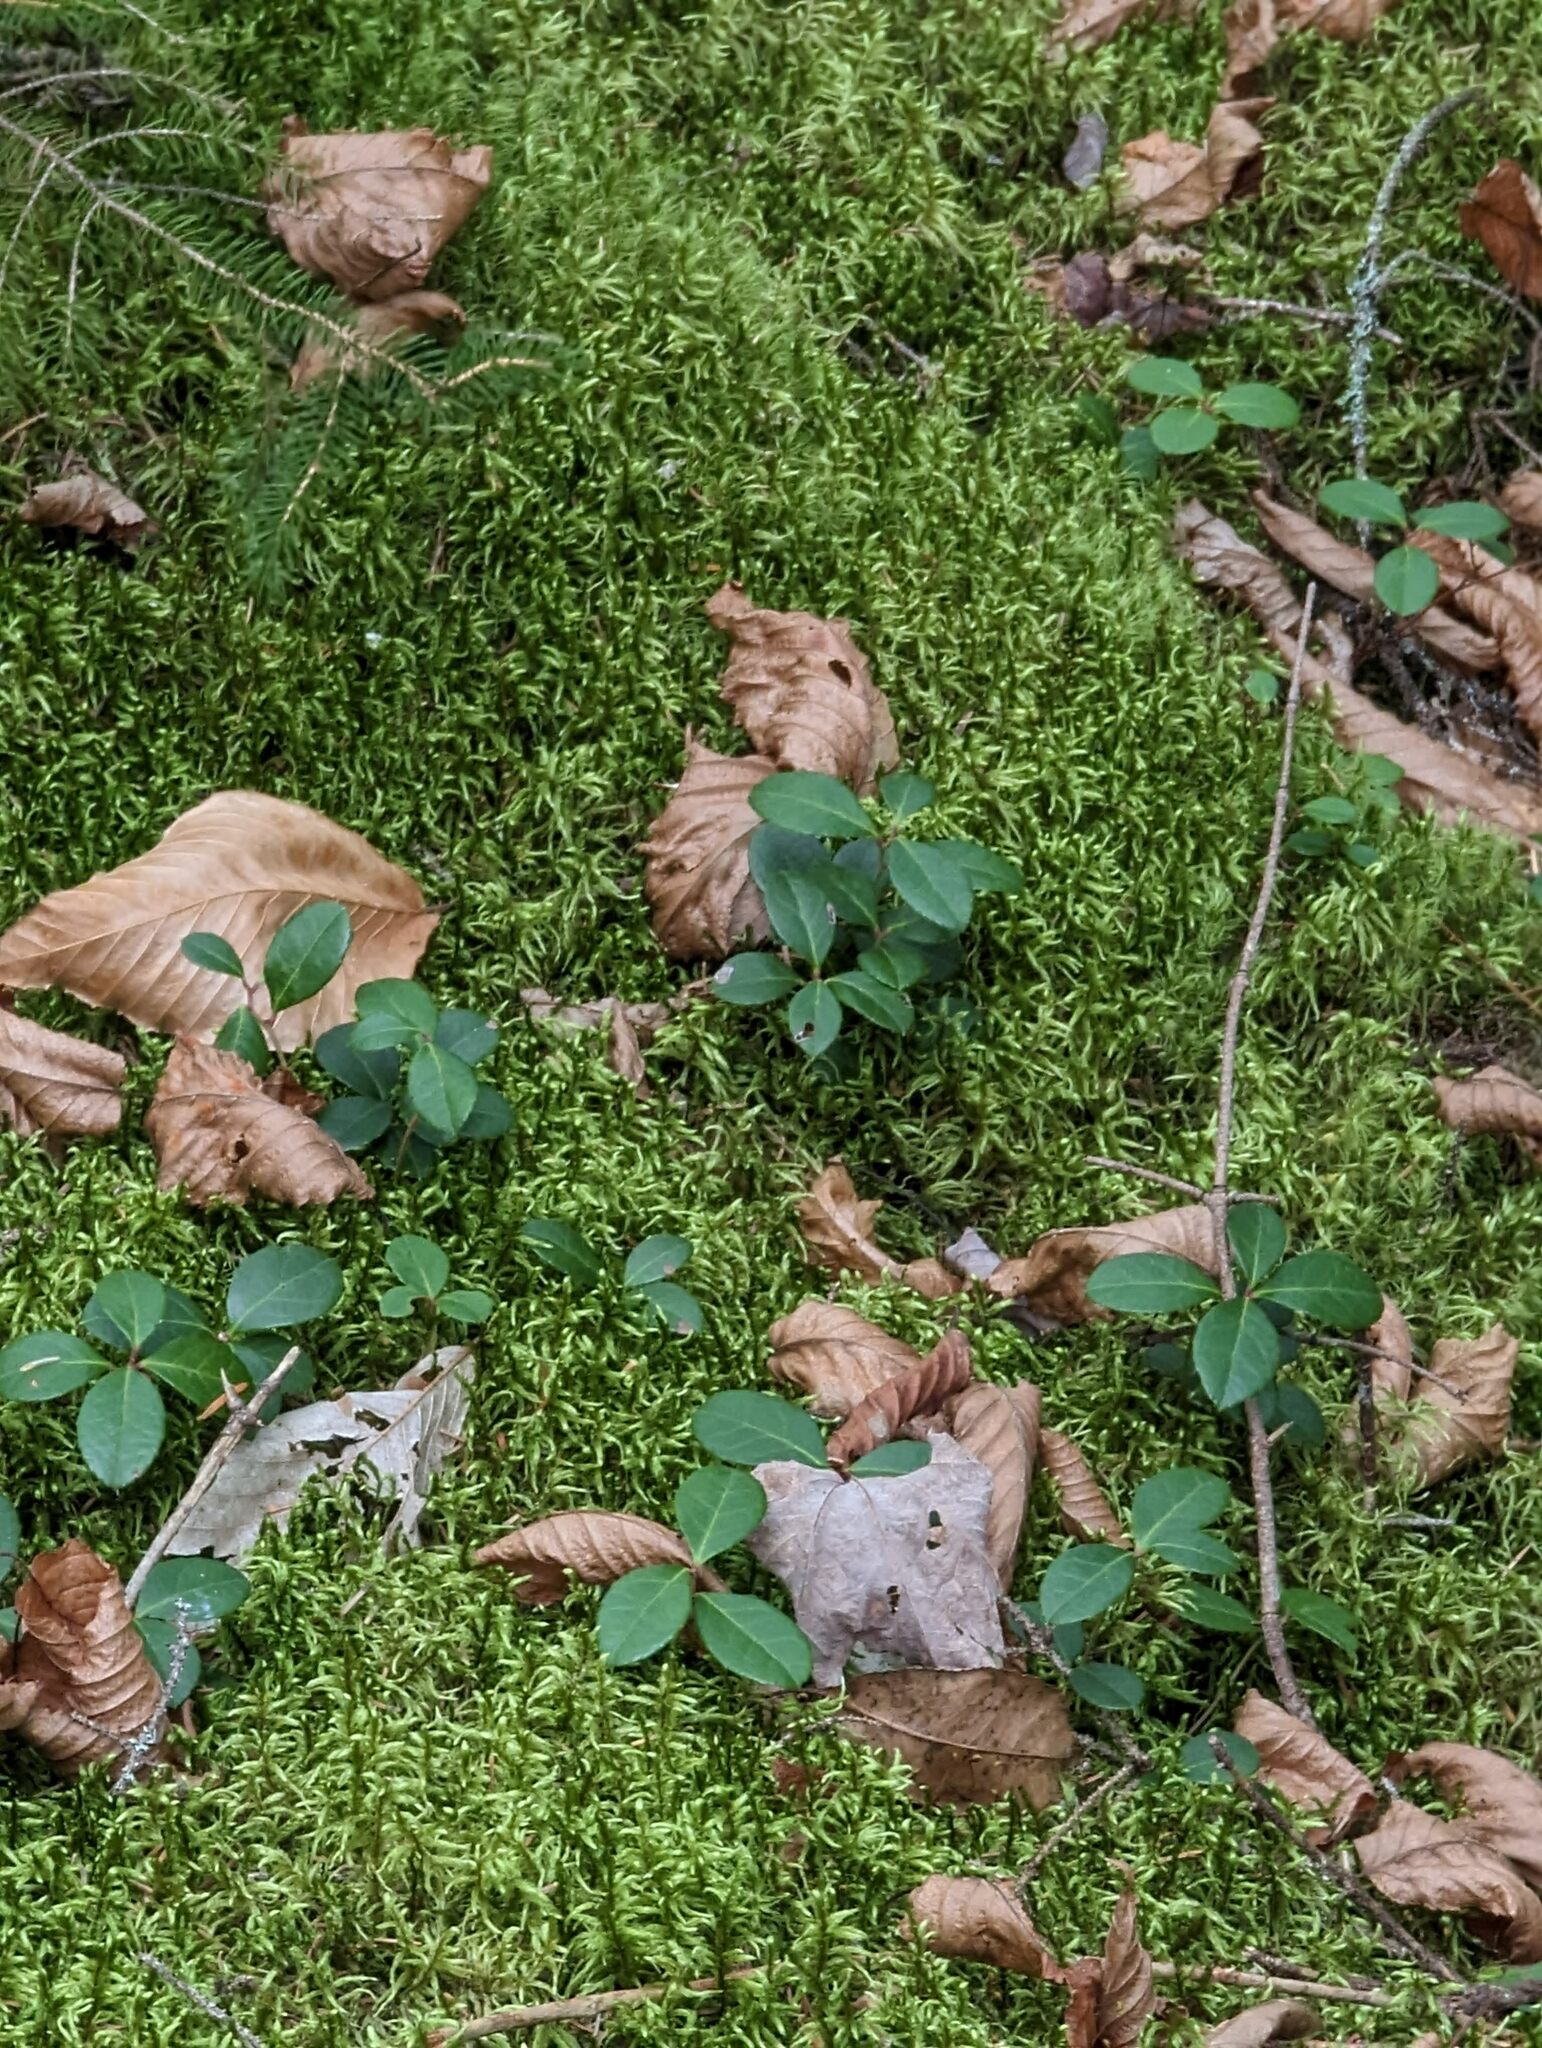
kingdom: Plantae
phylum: Tracheophyta
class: Magnoliopsida
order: Ericales
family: Ericaceae
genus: Gaultheria
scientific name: Gaultheria procumbens
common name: Checkerberry
